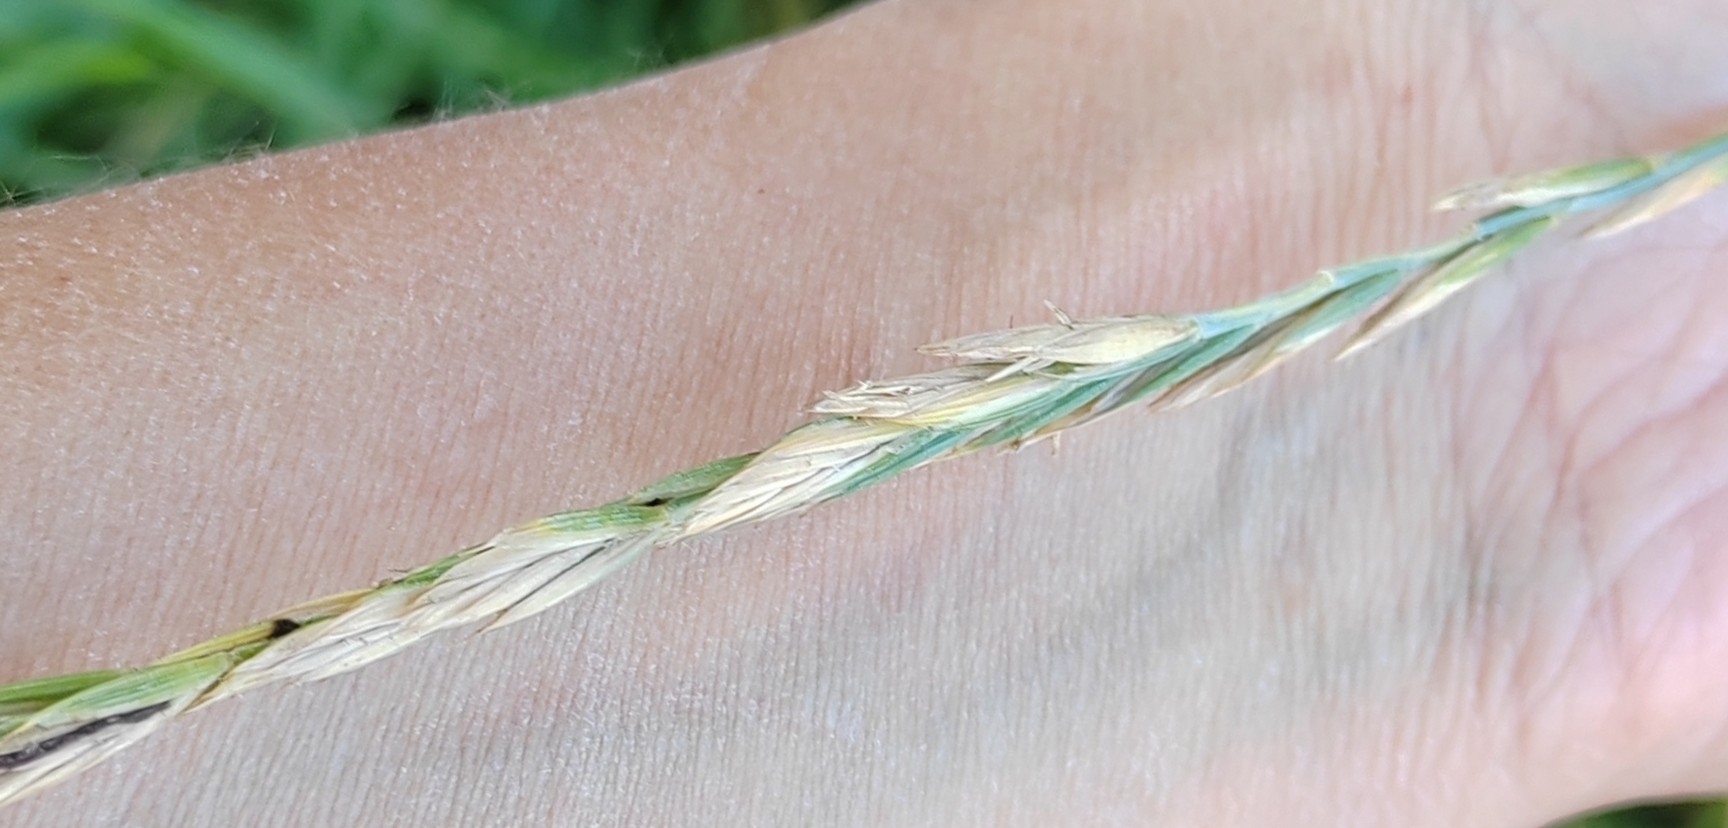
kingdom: Plantae
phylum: Tracheophyta
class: Liliopsida
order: Poales
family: Poaceae
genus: Elymus
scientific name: Elymus repens
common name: Quackgrass
